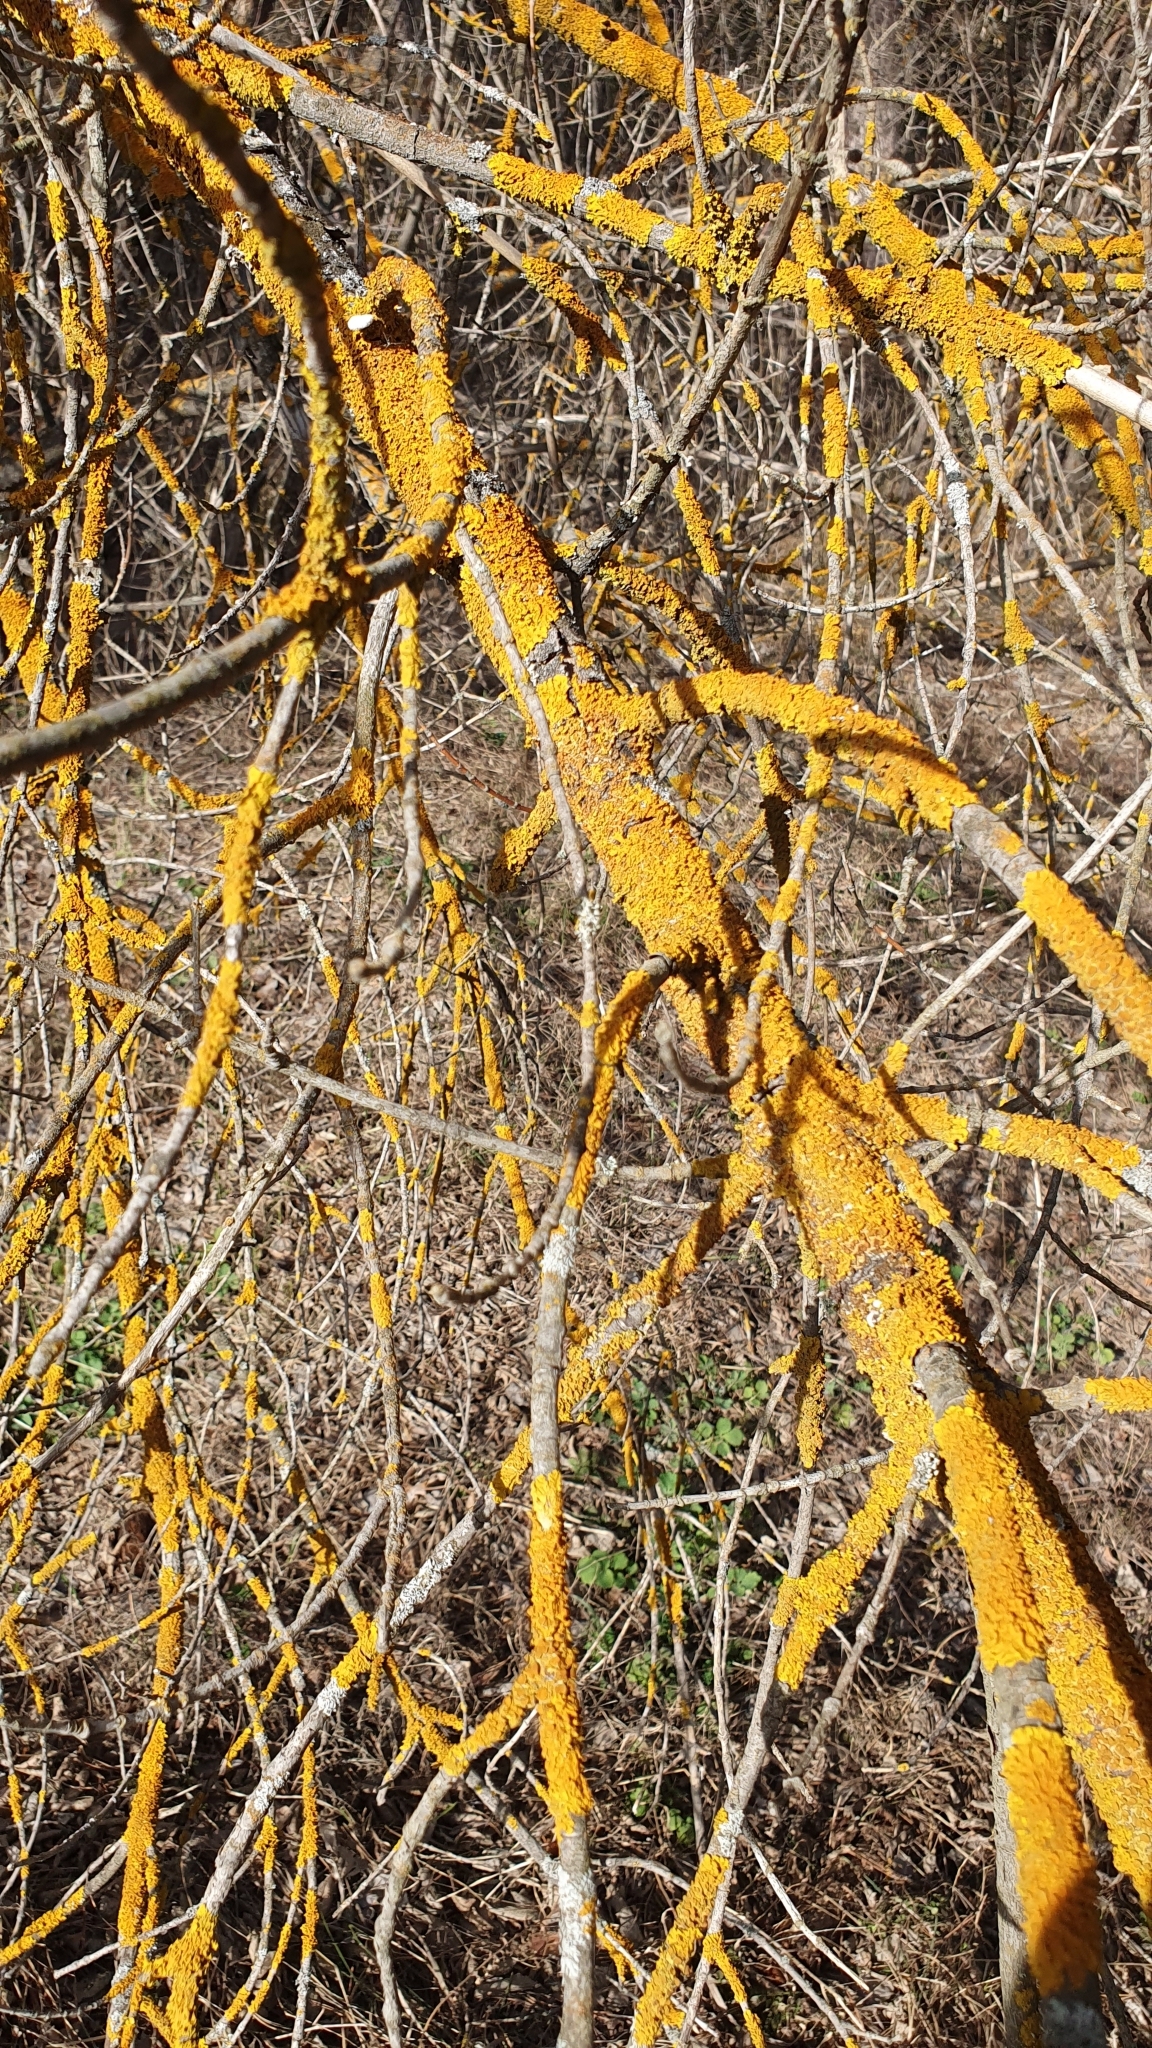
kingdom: Fungi
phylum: Ascomycota
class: Lecanoromycetes
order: Teloschistales
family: Teloschistaceae
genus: Xanthoria
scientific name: Xanthoria parietina
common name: Common orange lichen
